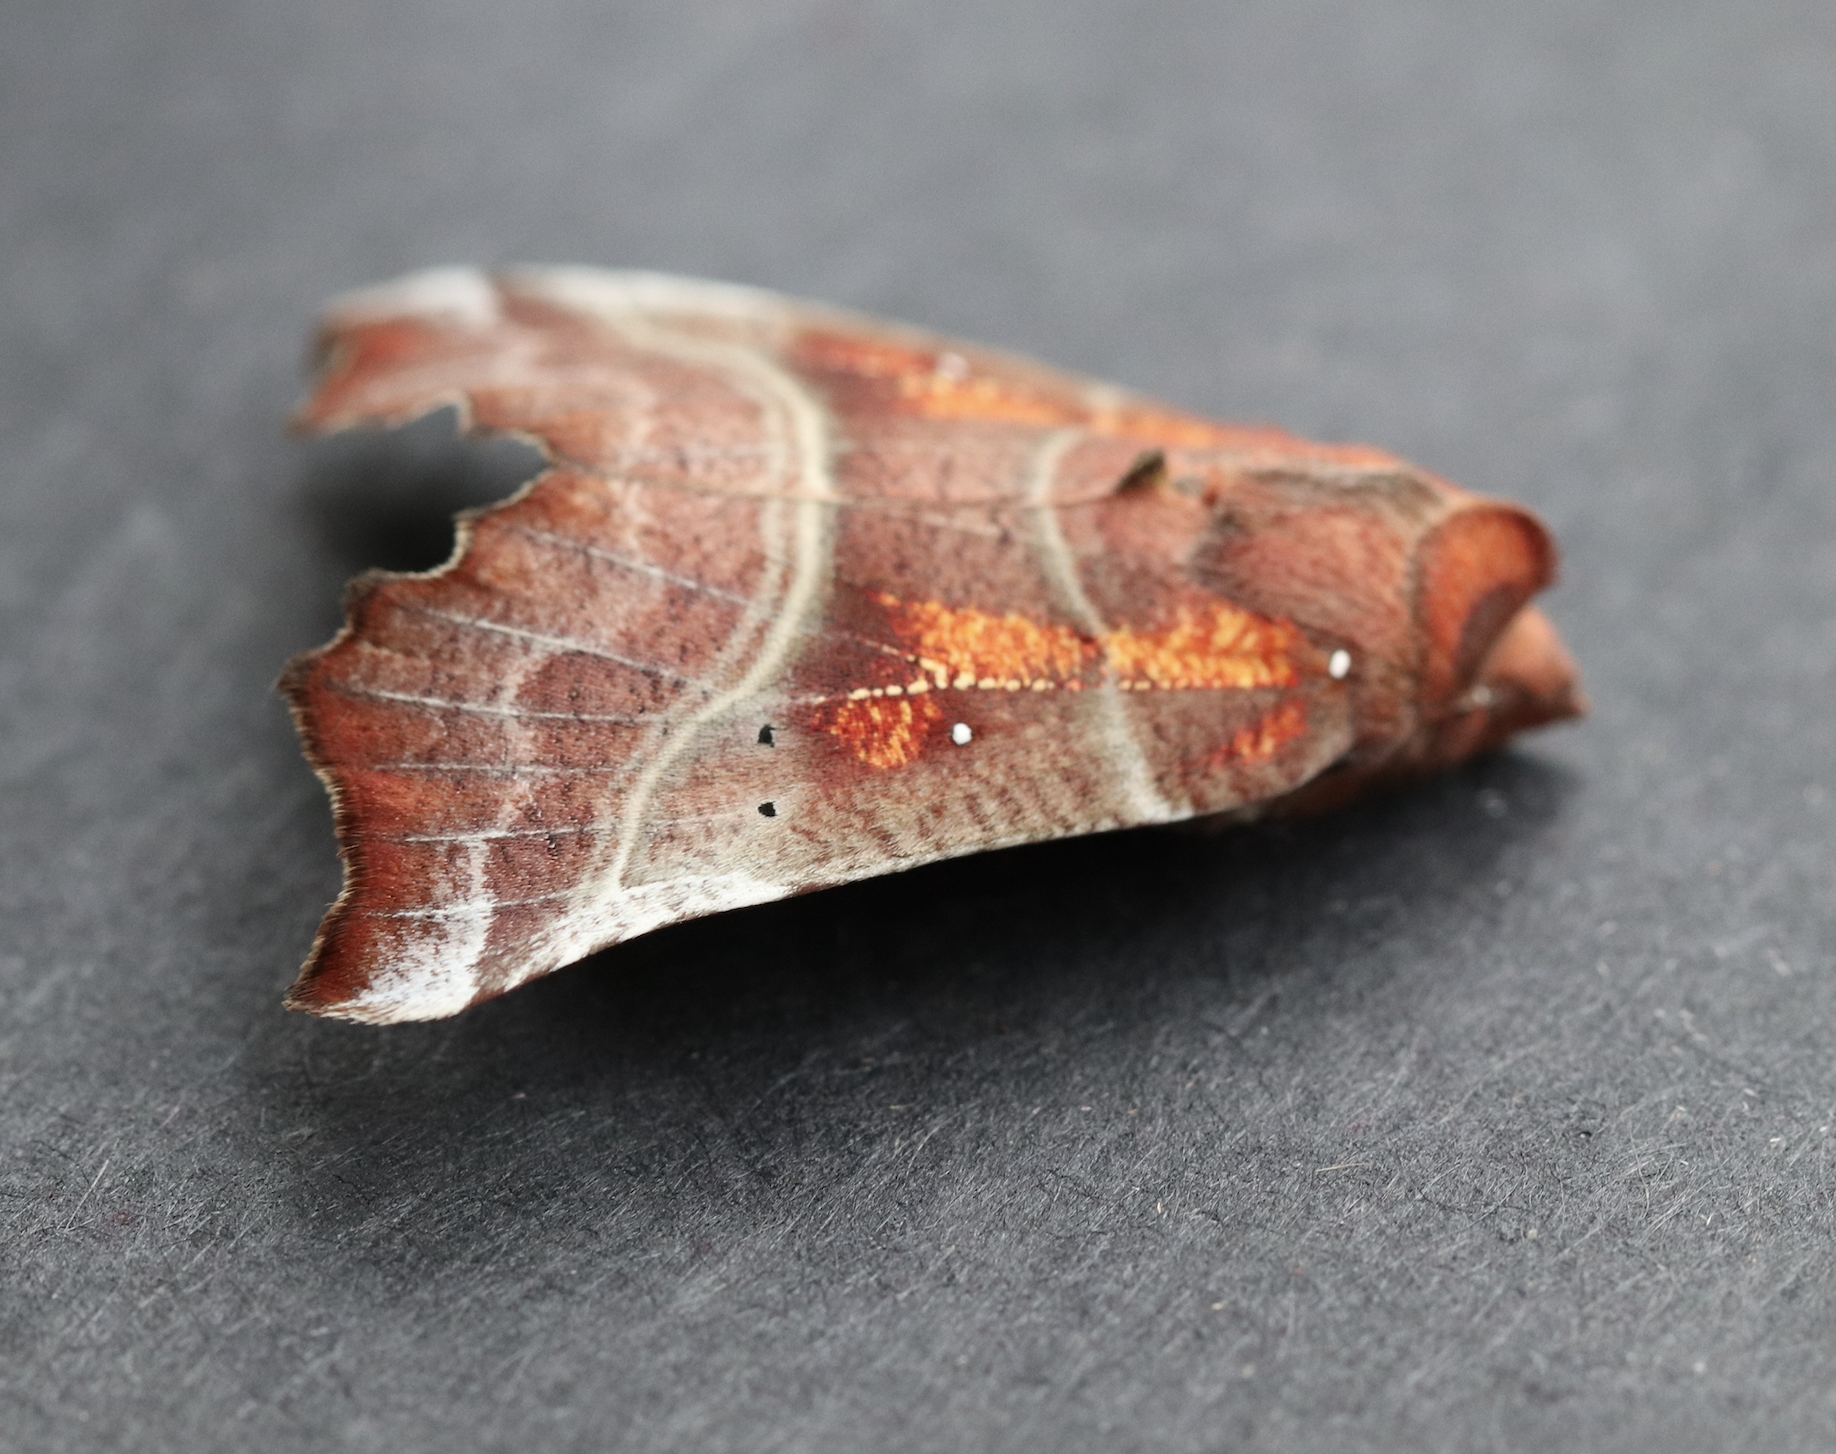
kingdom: Animalia
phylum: Arthropoda
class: Insecta
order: Lepidoptera
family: Erebidae
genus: Scoliopteryx
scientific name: Scoliopteryx libatrix
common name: Herald
